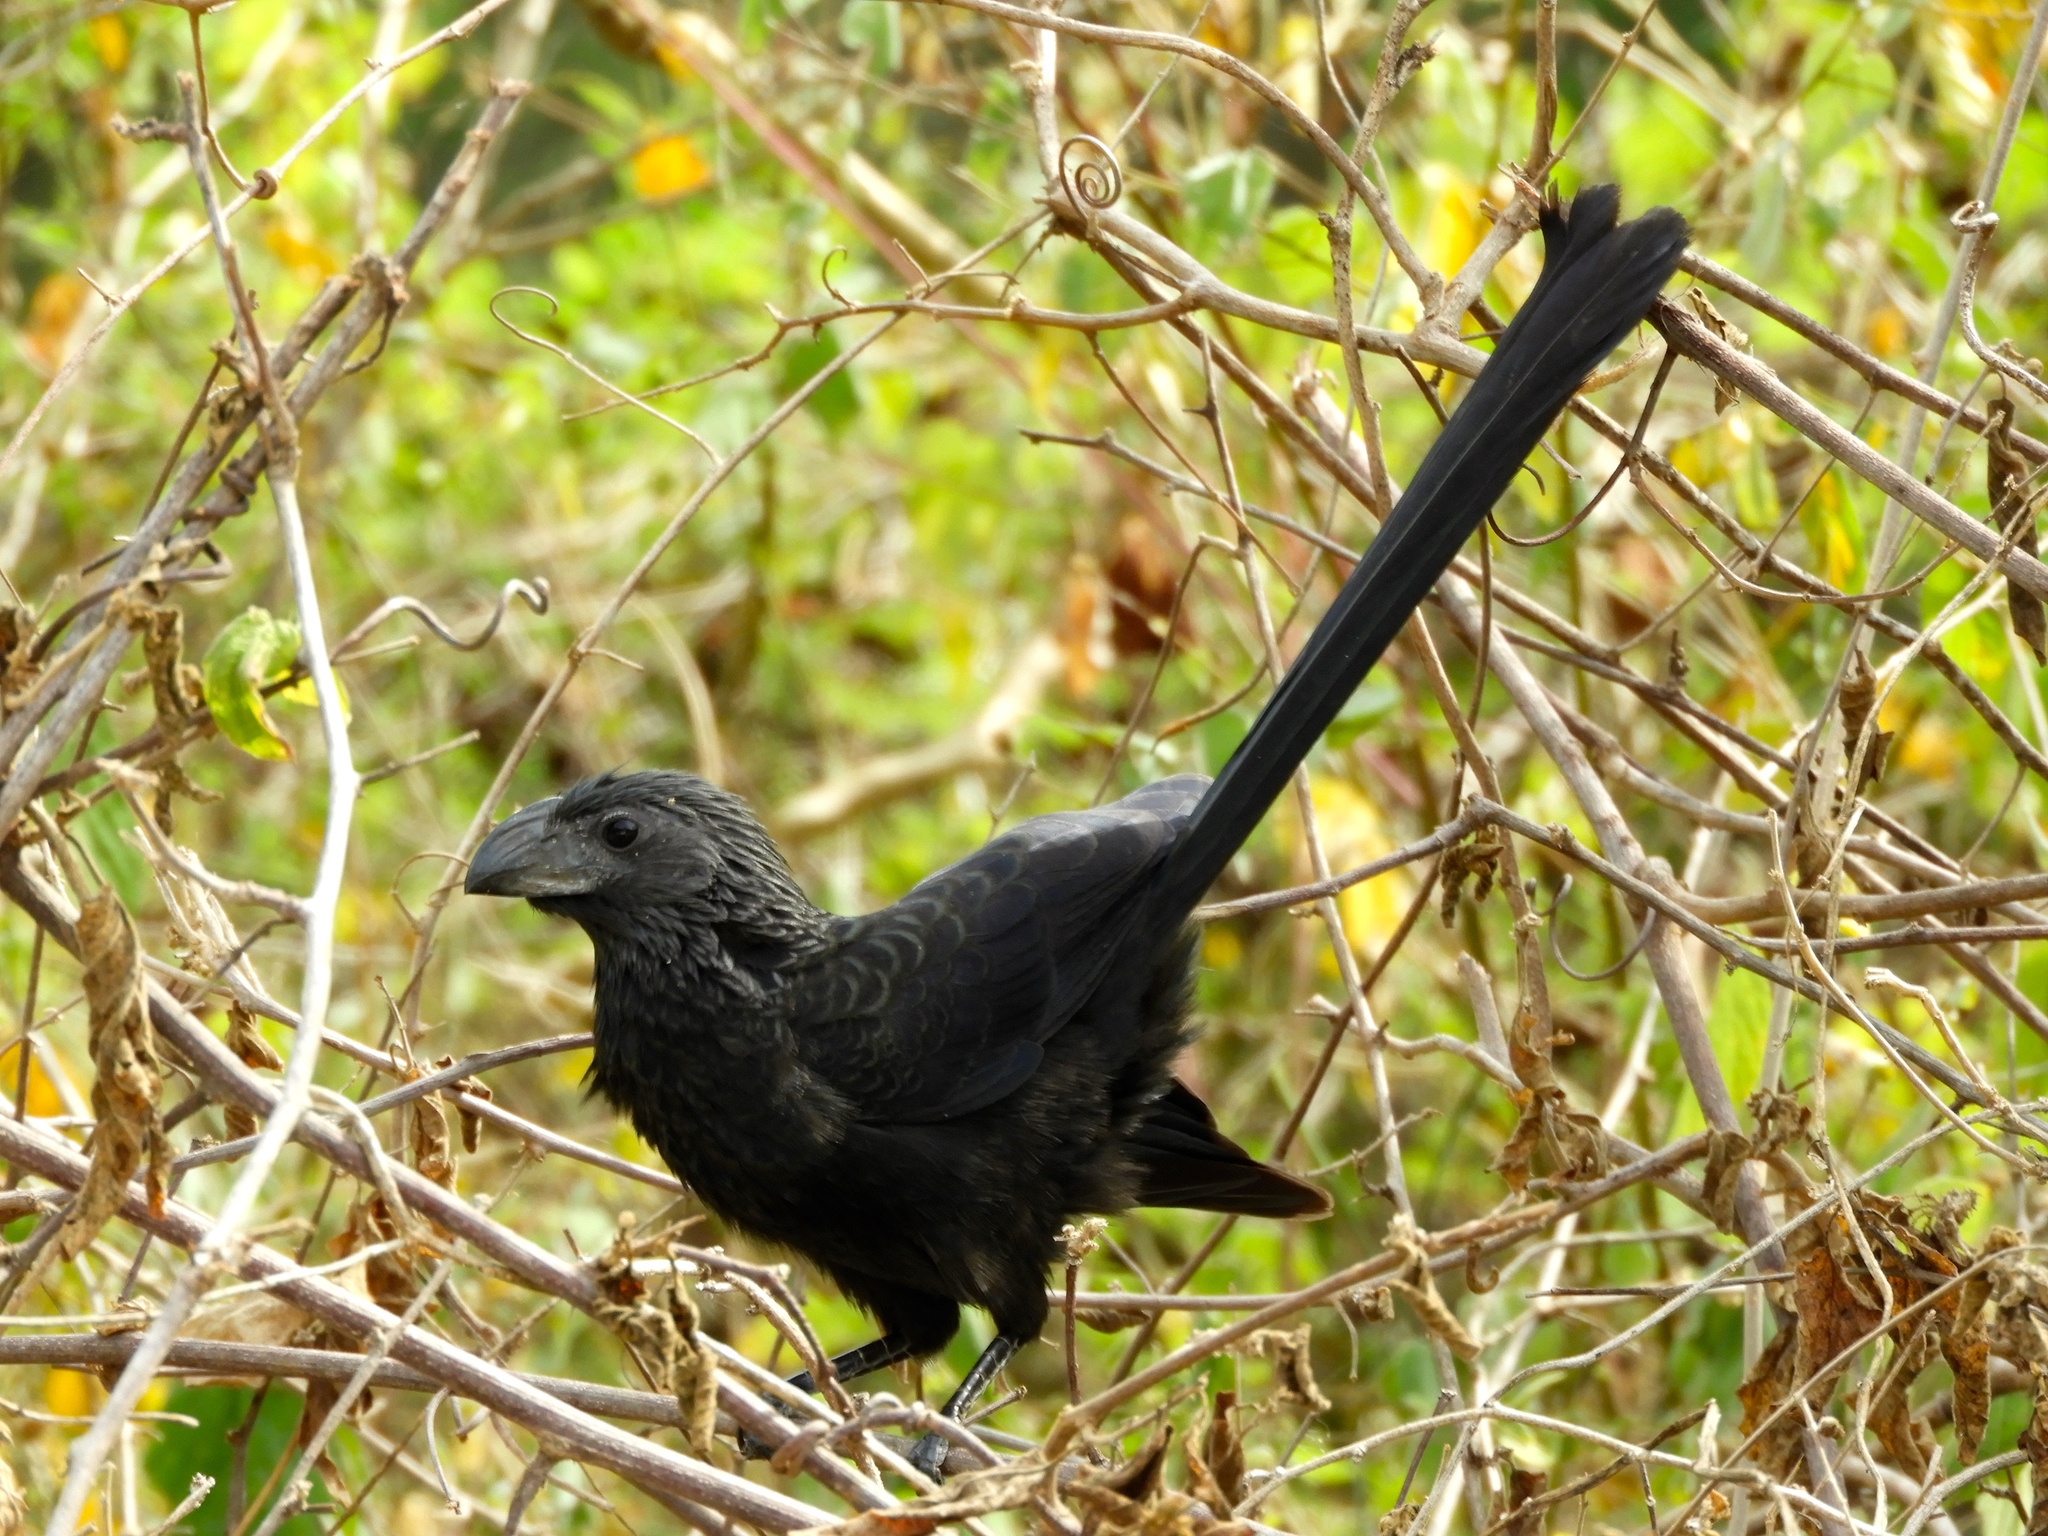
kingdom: Animalia
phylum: Chordata
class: Aves
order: Cuculiformes
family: Cuculidae
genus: Crotophaga
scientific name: Crotophaga sulcirostris
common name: Groove-billed ani
